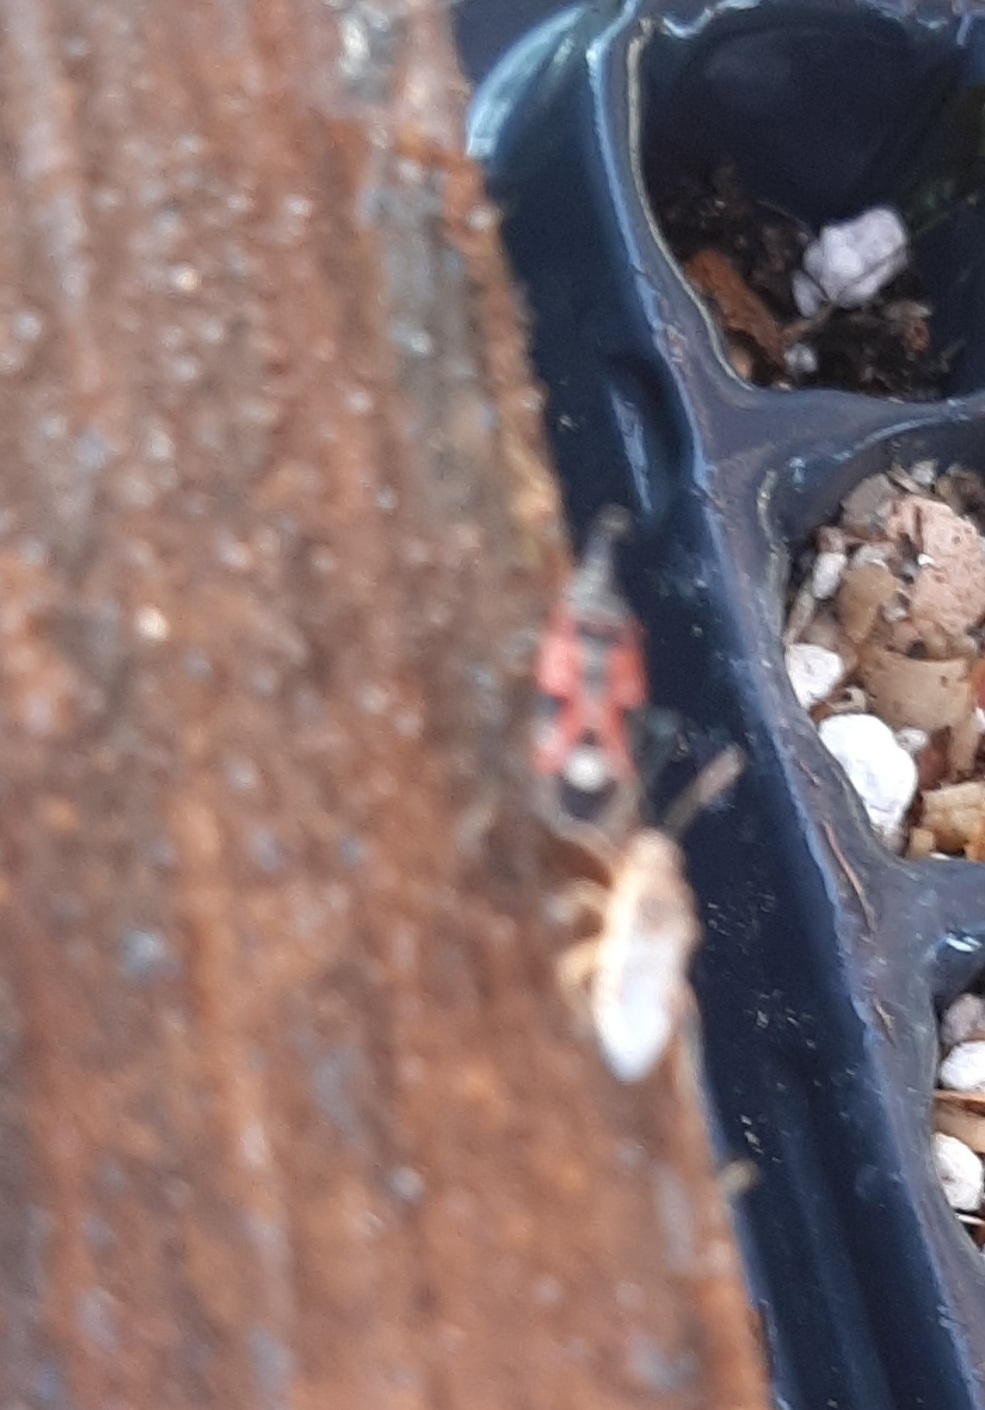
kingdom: Animalia
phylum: Arthropoda
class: Insecta
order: Hemiptera
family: Lygaeidae
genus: Lygaeus
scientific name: Lygaeus alboornatus
